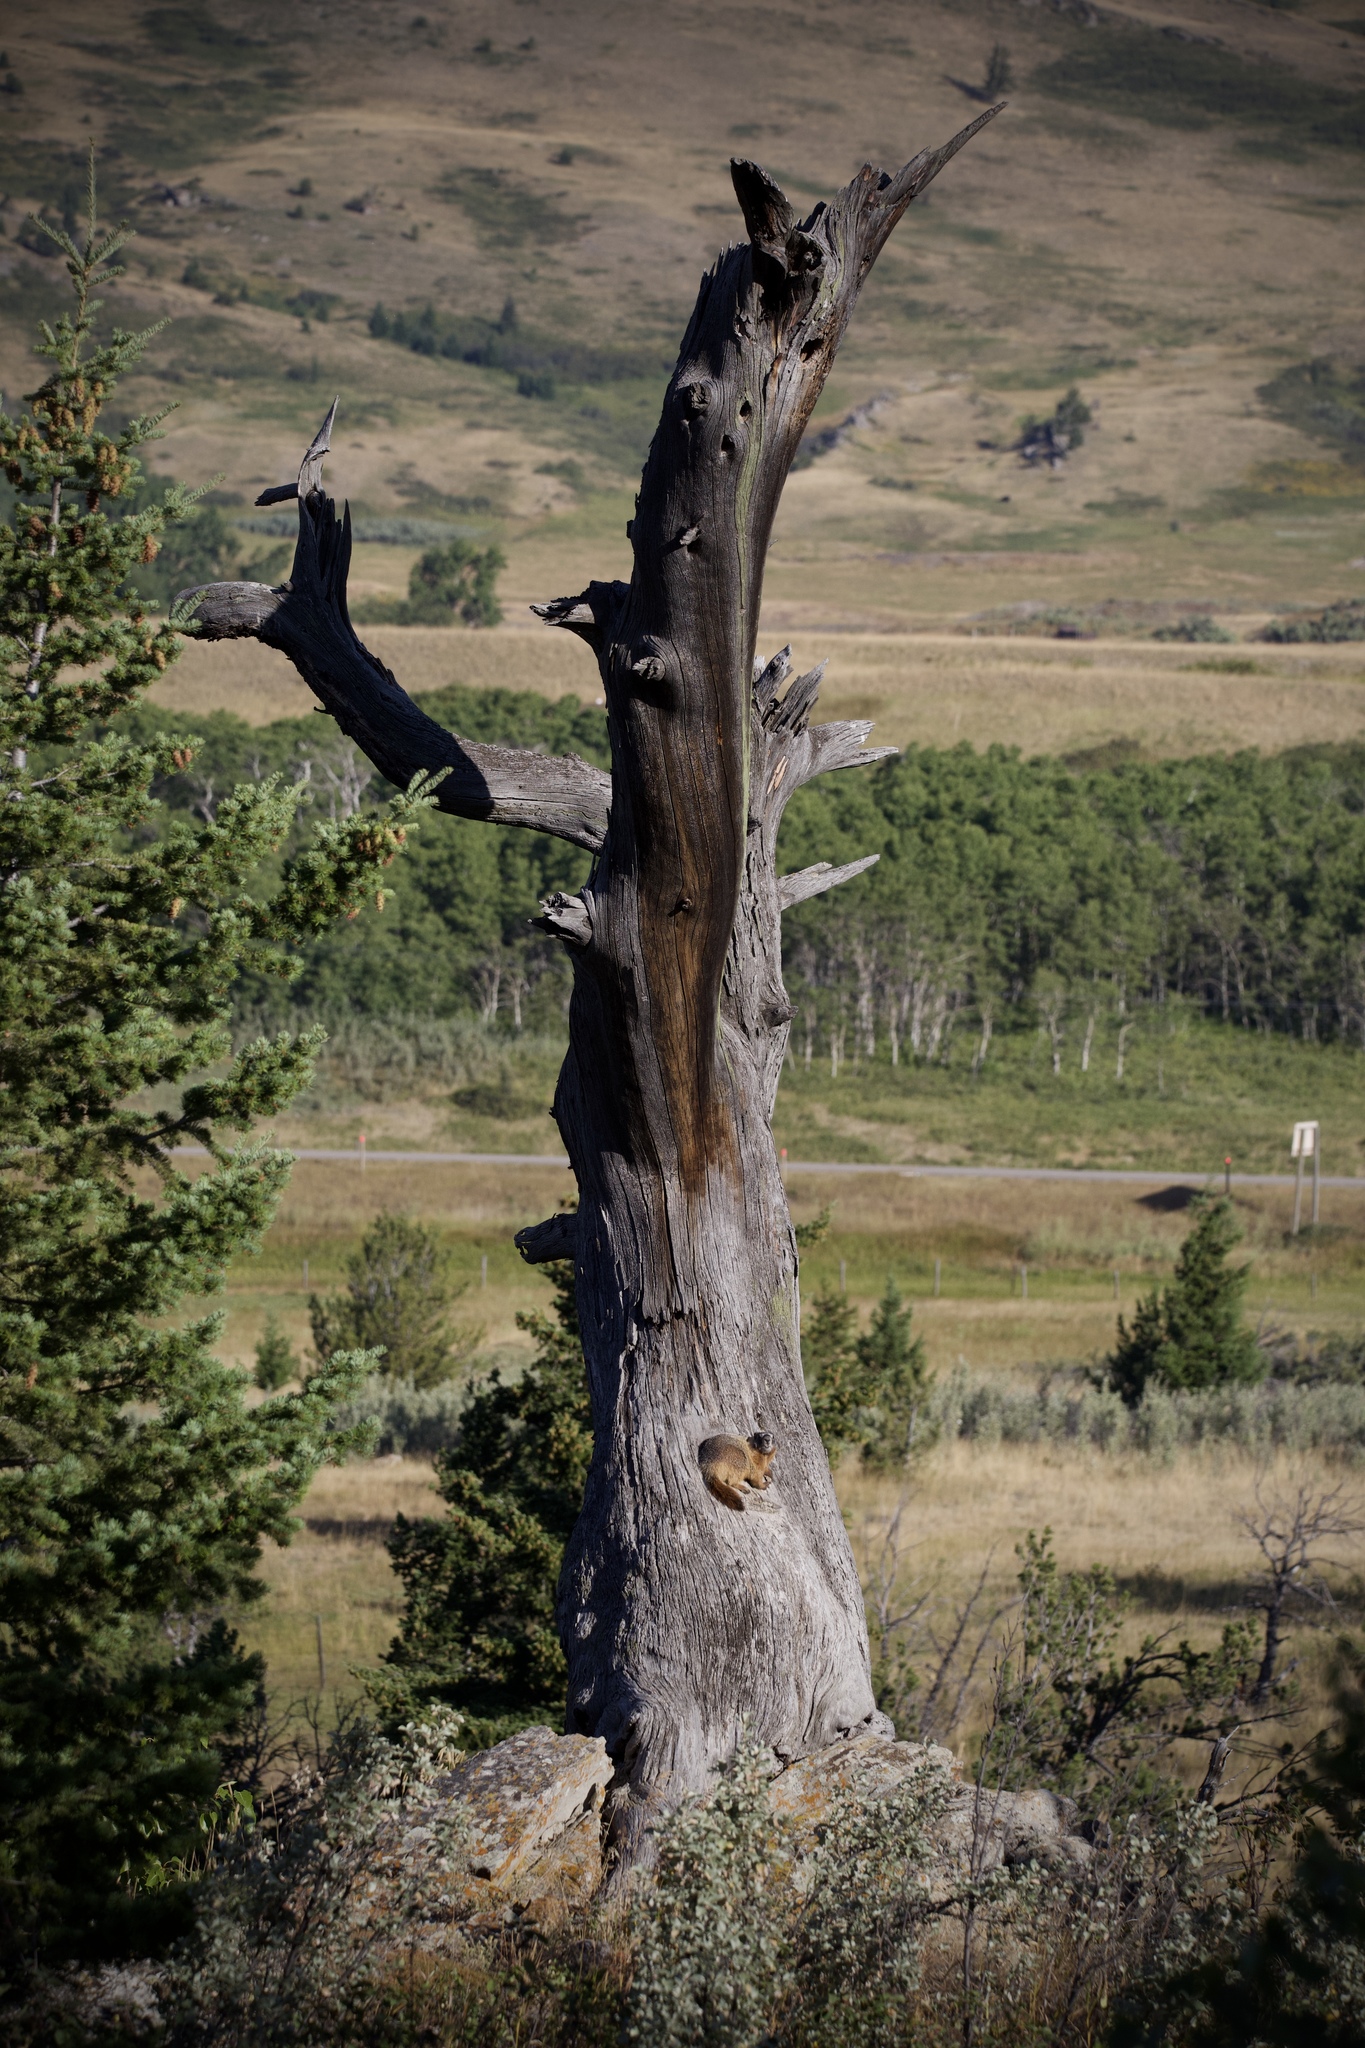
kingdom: Animalia
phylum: Chordata
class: Mammalia
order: Rodentia
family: Sciuridae
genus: Marmota
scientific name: Marmota flaviventris
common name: Yellow-bellied marmot
